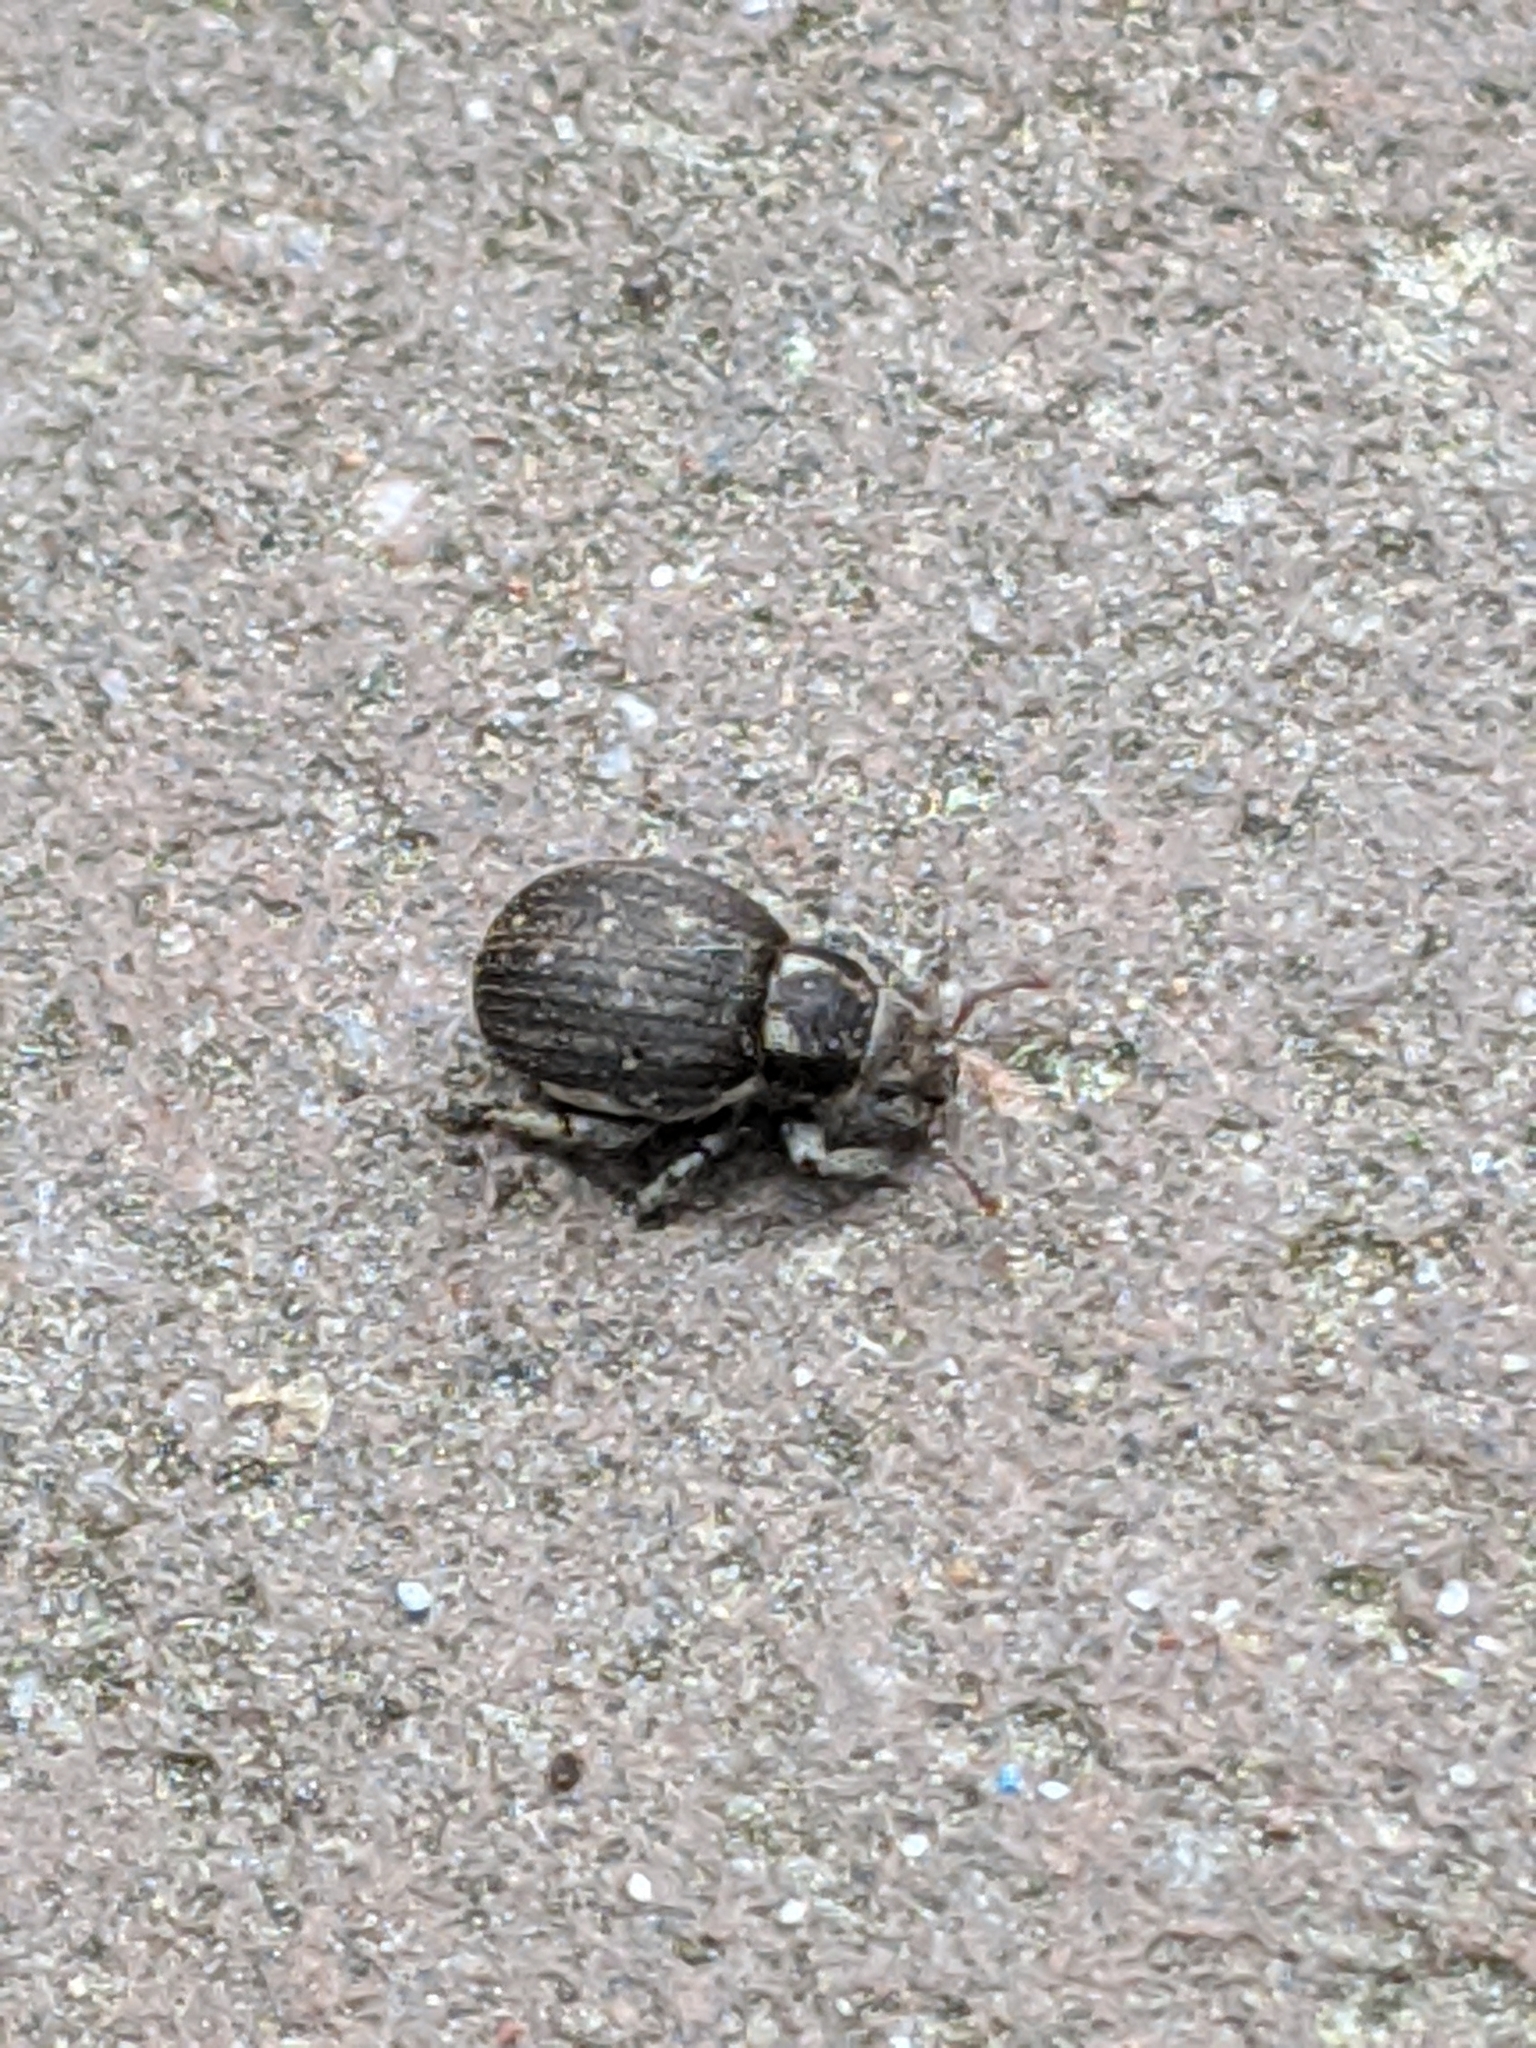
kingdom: Animalia
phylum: Arthropoda
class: Insecta
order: Coleoptera
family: Curculionidae
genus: Philopedon
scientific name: Philopedon plagiatum
